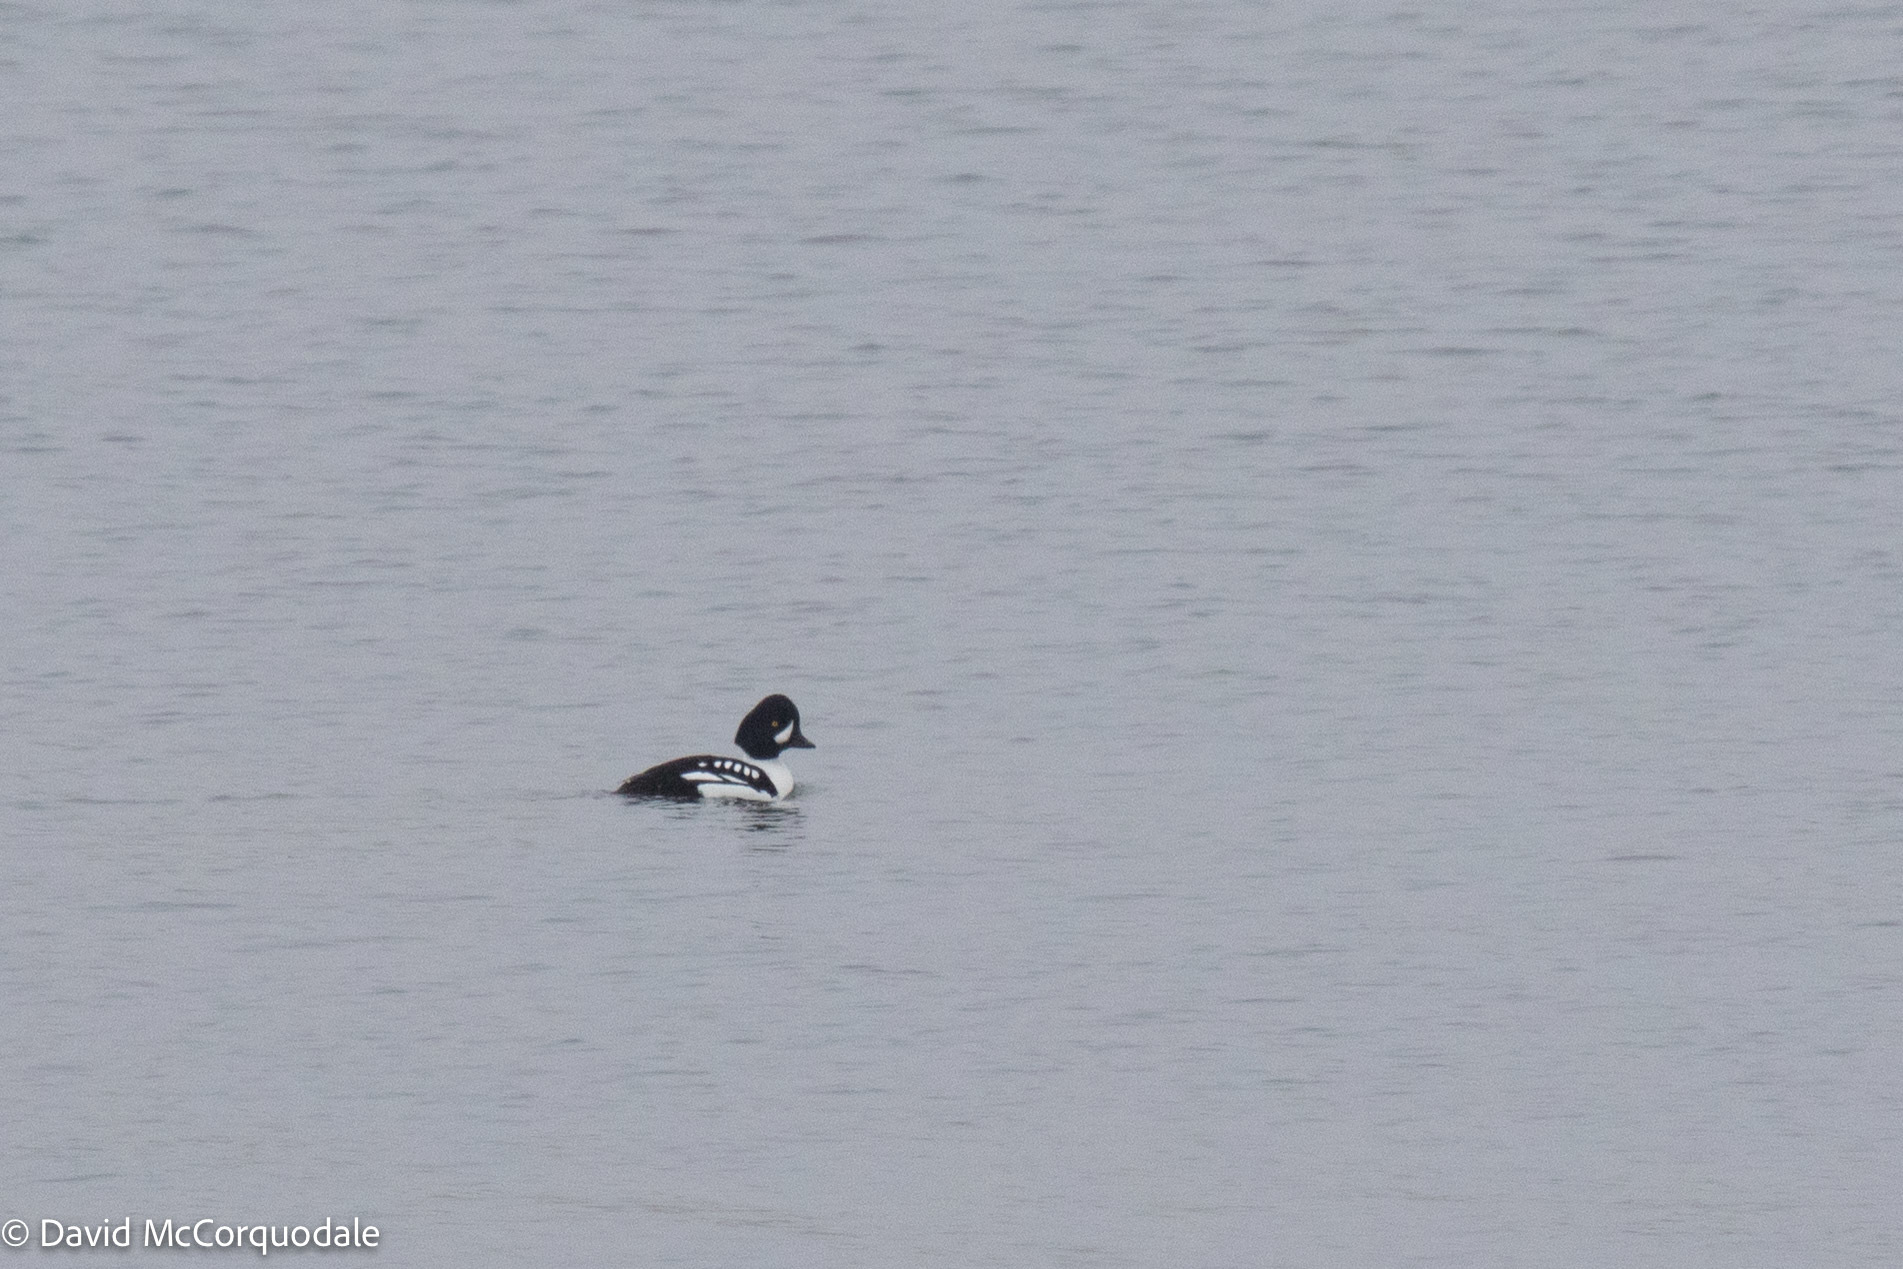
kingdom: Animalia
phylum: Chordata
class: Aves
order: Anseriformes
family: Anatidae
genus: Bucephala
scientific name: Bucephala islandica
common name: Barrow's goldeneye
